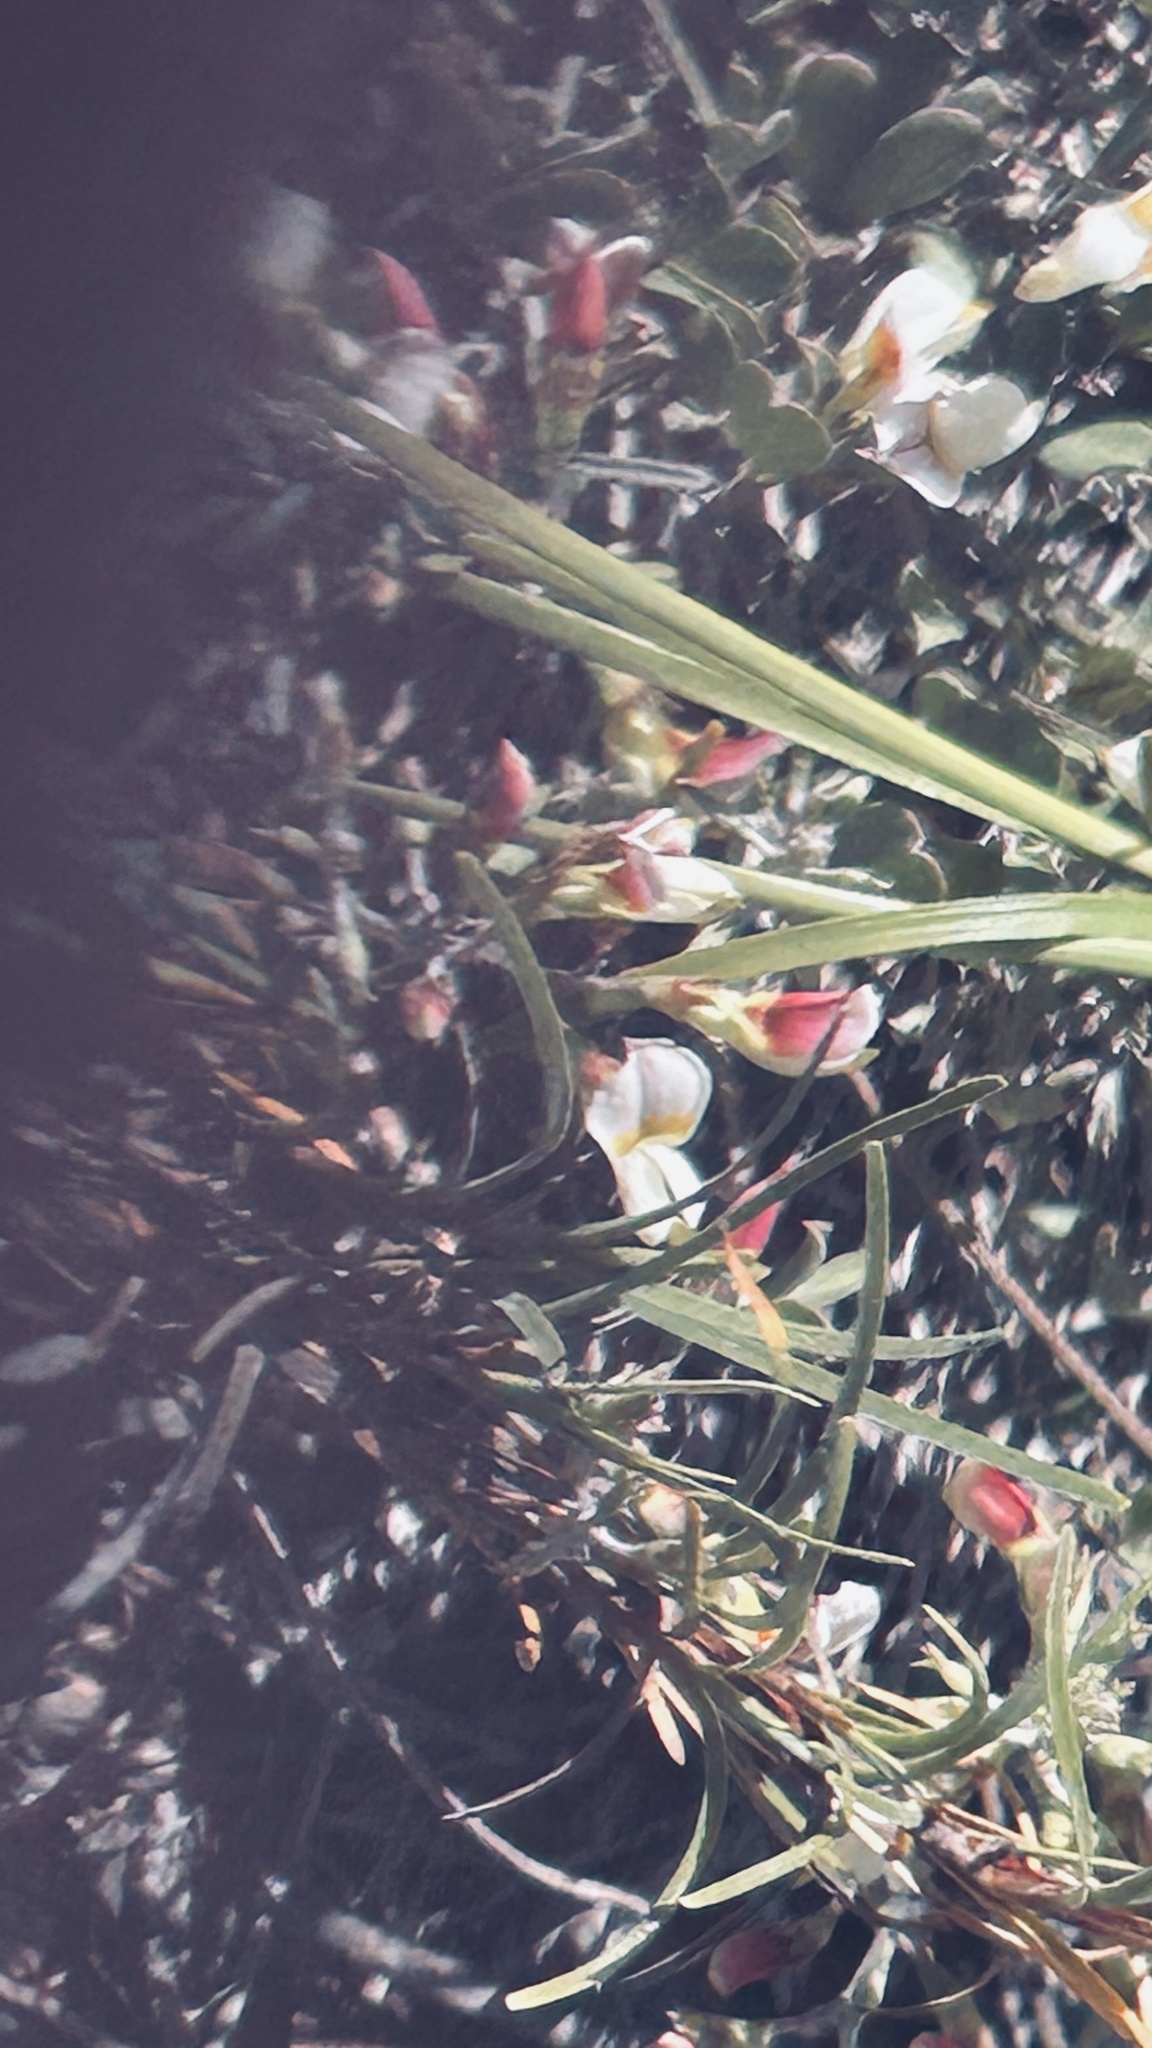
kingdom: Plantae
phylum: Tracheophyta
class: Magnoliopsida
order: Fabales
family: Fabaceae
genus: Lotononis
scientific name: Lotononis glabra
